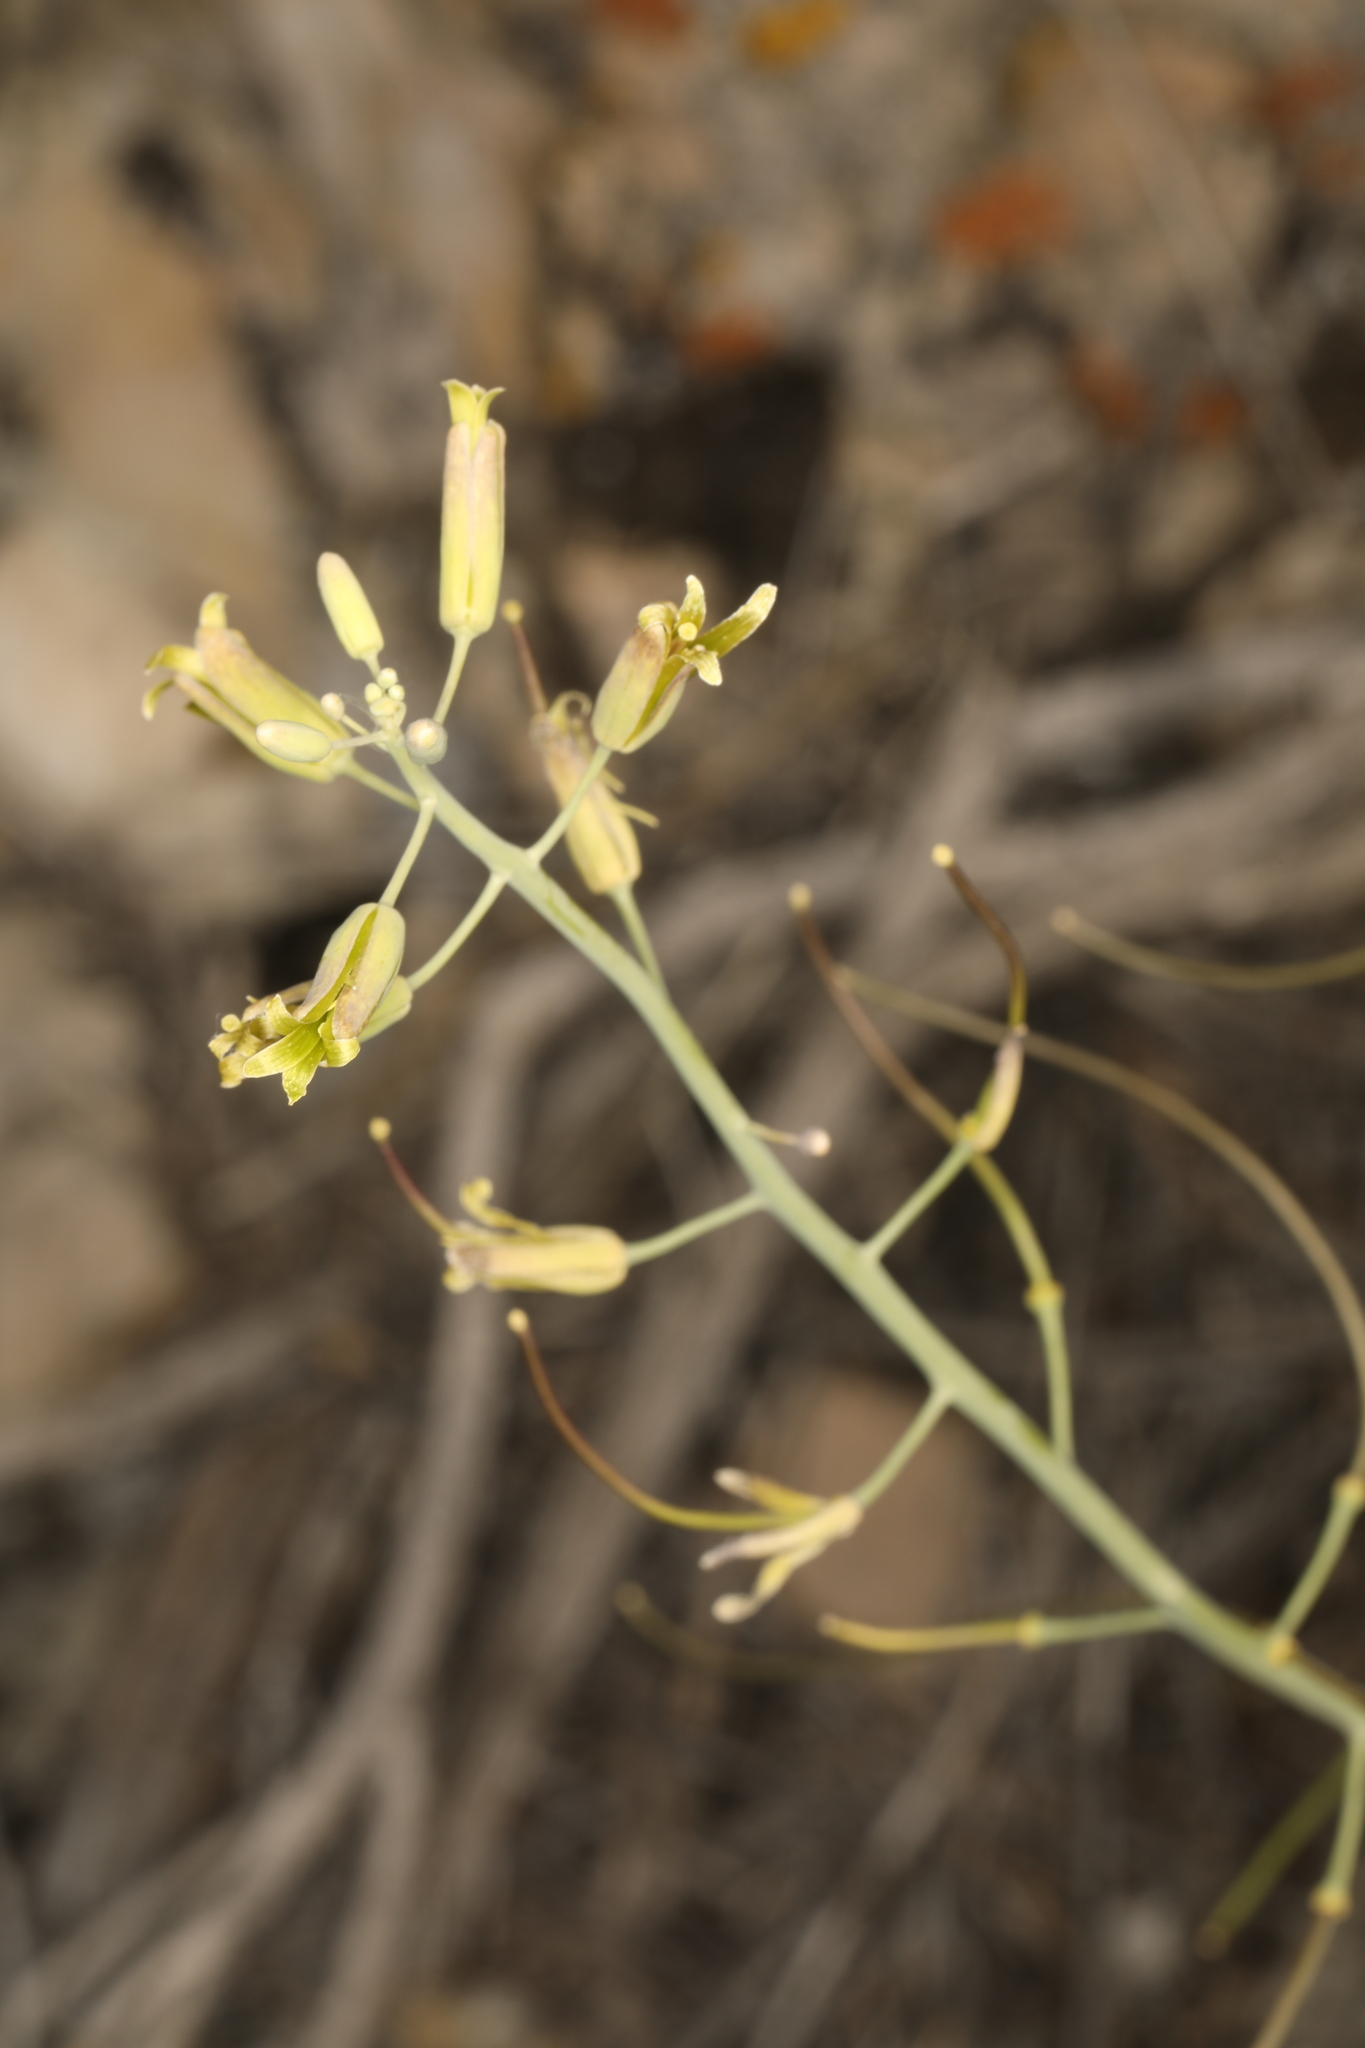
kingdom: Plantae
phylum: Tracheophyta
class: Magnoliopsida
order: Brassicales
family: Brassicaceae
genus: Streptanthus
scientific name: Streptanthus glaucus
